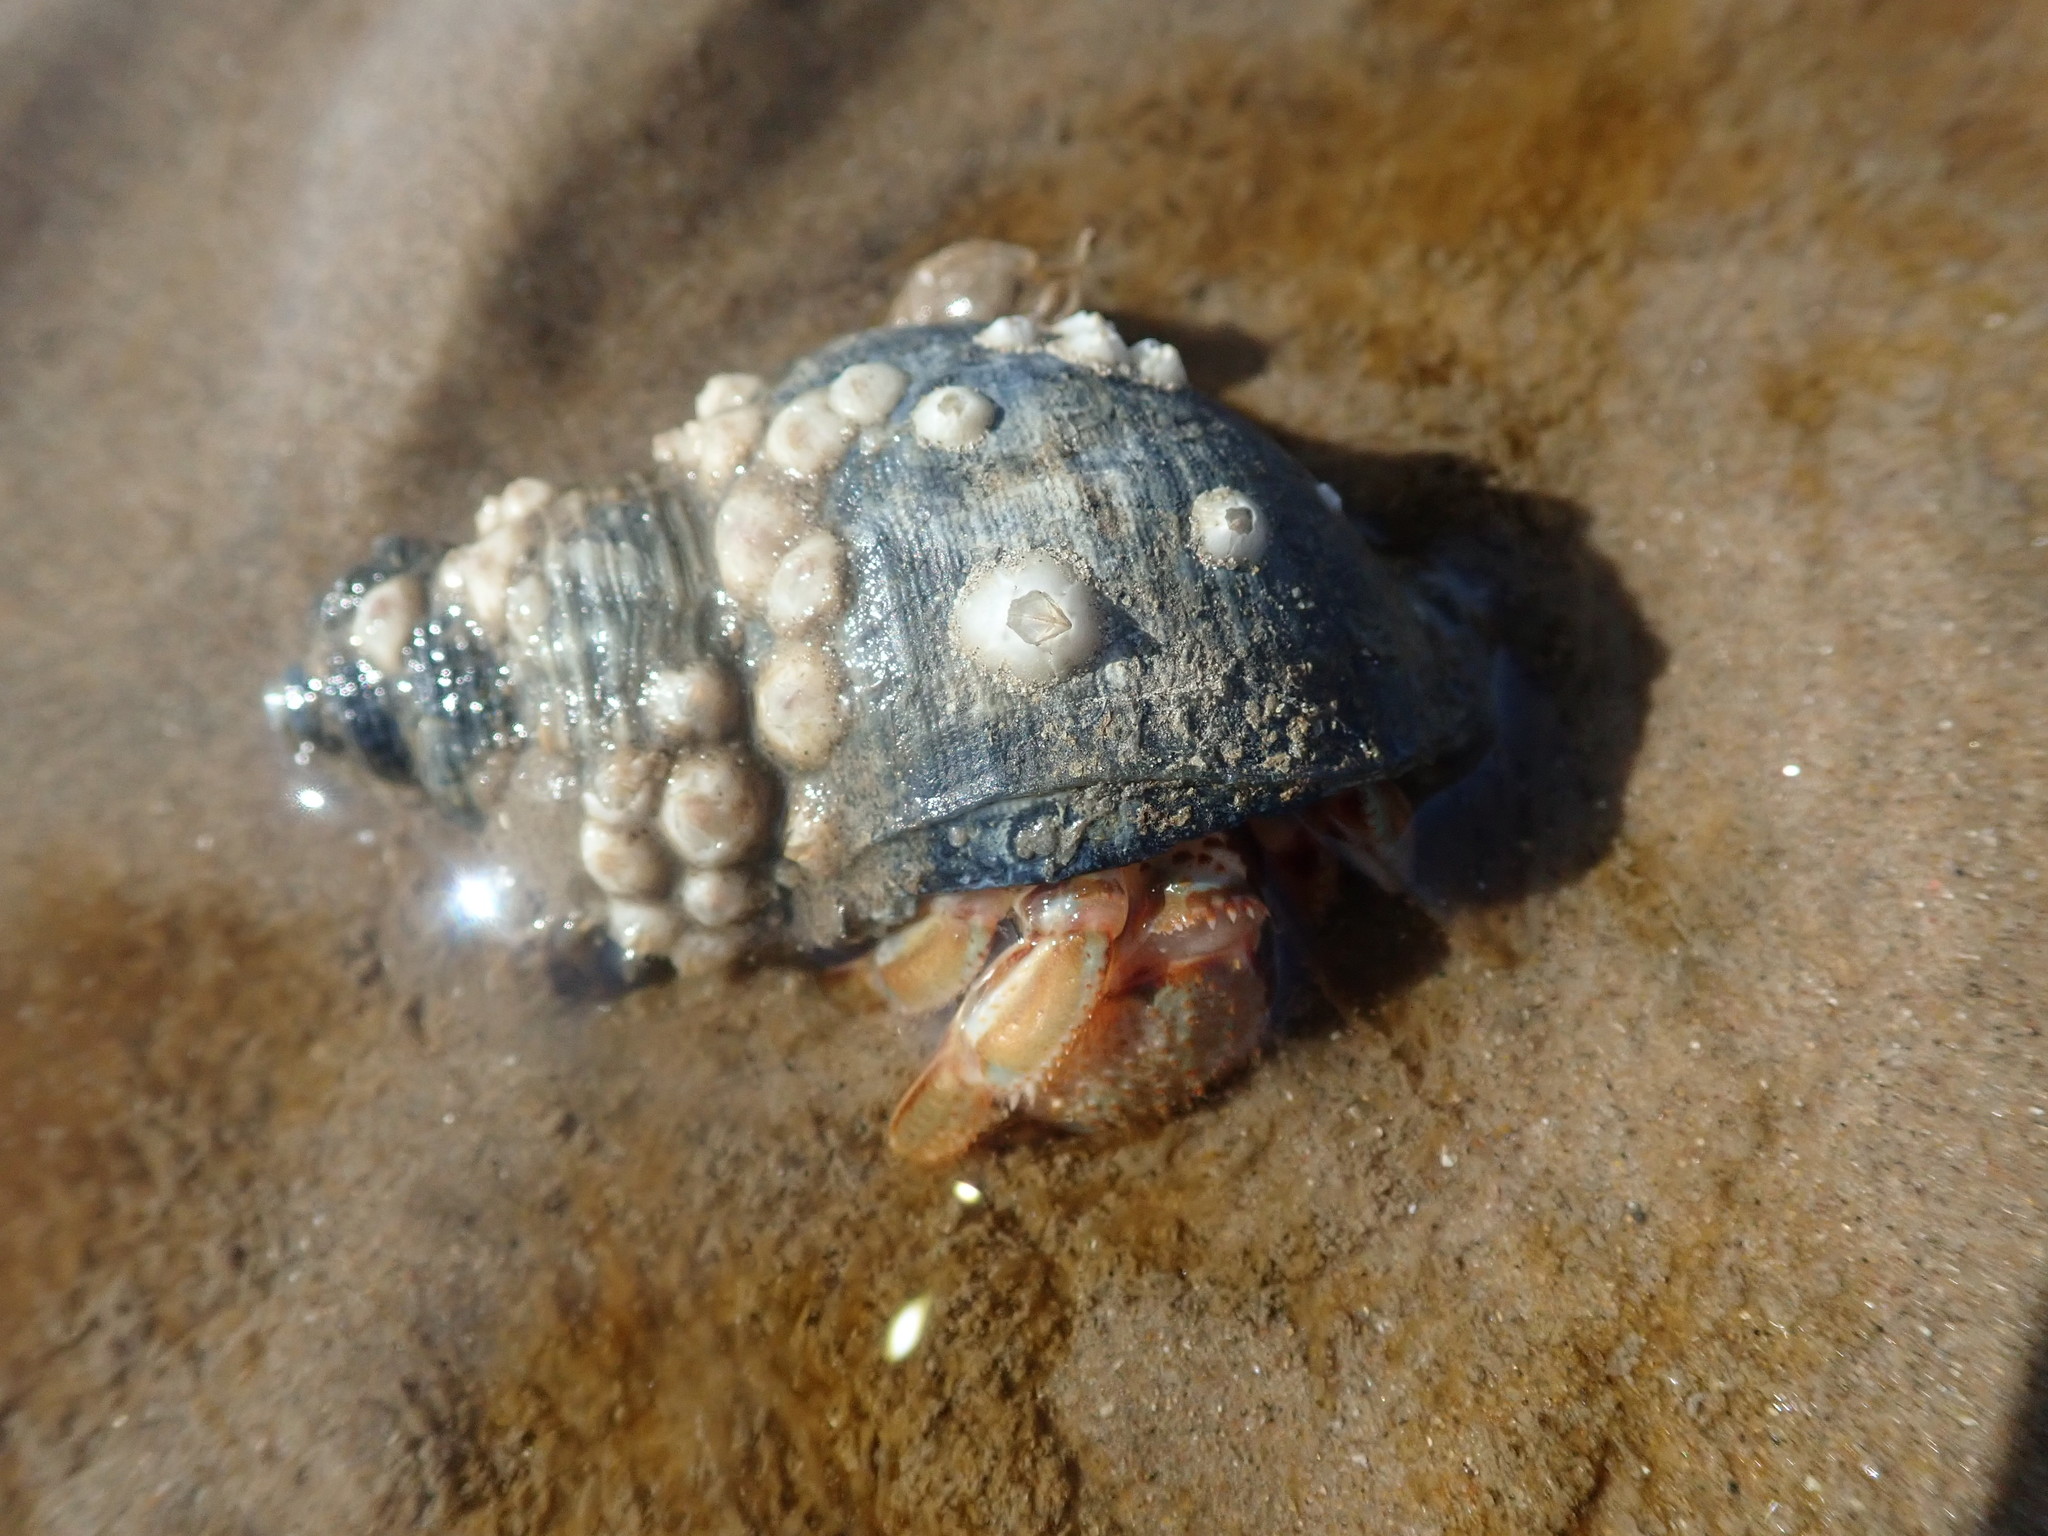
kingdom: Animalia
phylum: Arthropoda
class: Malacostraca
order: Decapoda
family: Paguridae
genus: Pagurus
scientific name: Pagurus bernhardus
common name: Hermit crab
